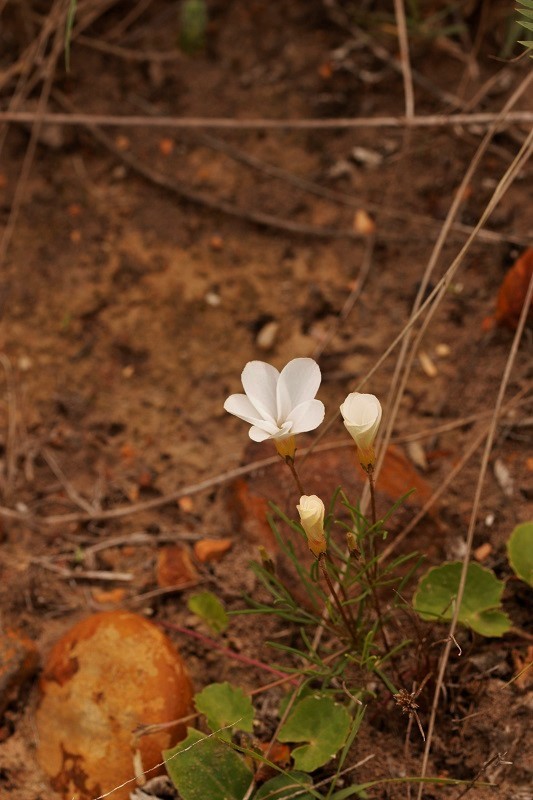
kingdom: Plantae
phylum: Tracheophyta
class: Magnoliopsida
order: Oxalidales
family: Oxalidaceae
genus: Oxalis
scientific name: Oxalis polyphylla
